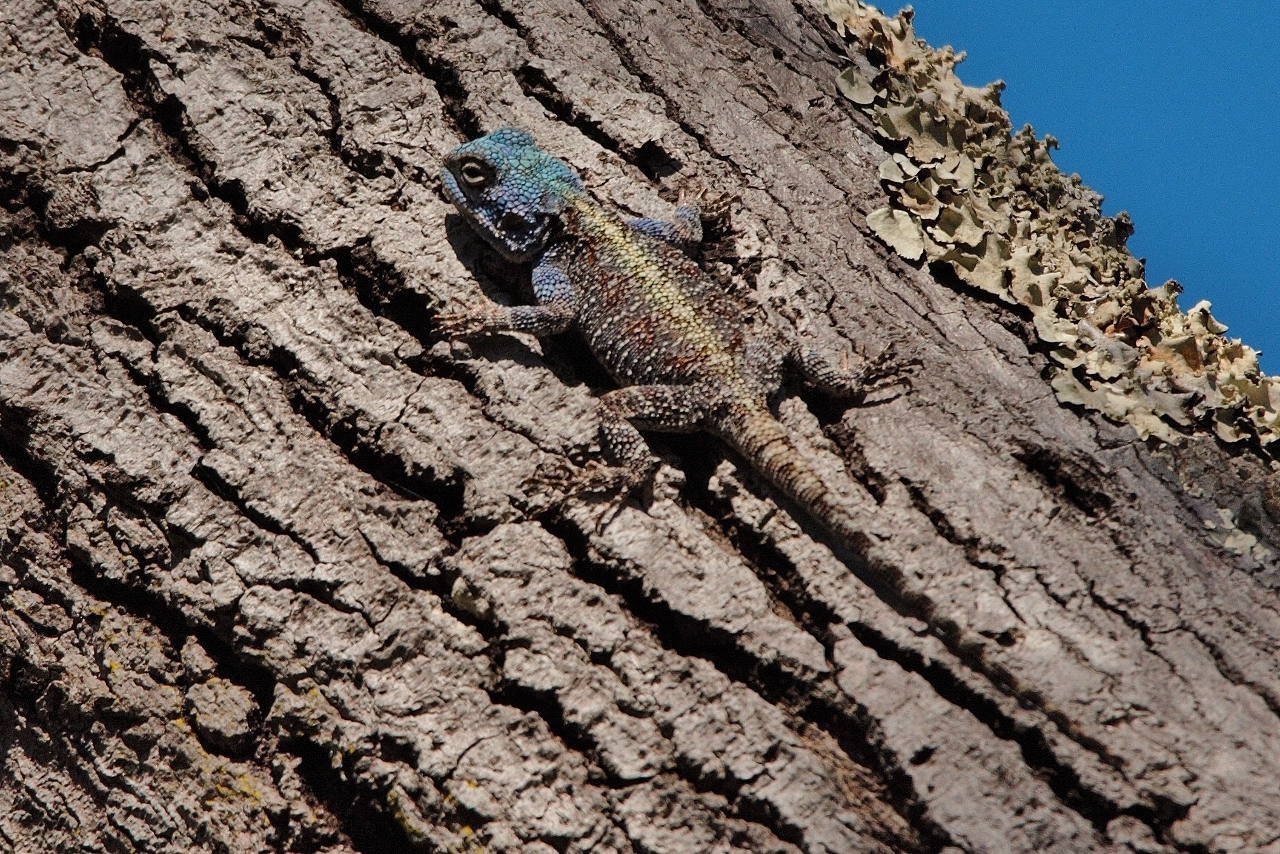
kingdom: Animalia
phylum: Chordata
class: Squamata
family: Agamidae
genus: Acanthocercus
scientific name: Acanthocercus
